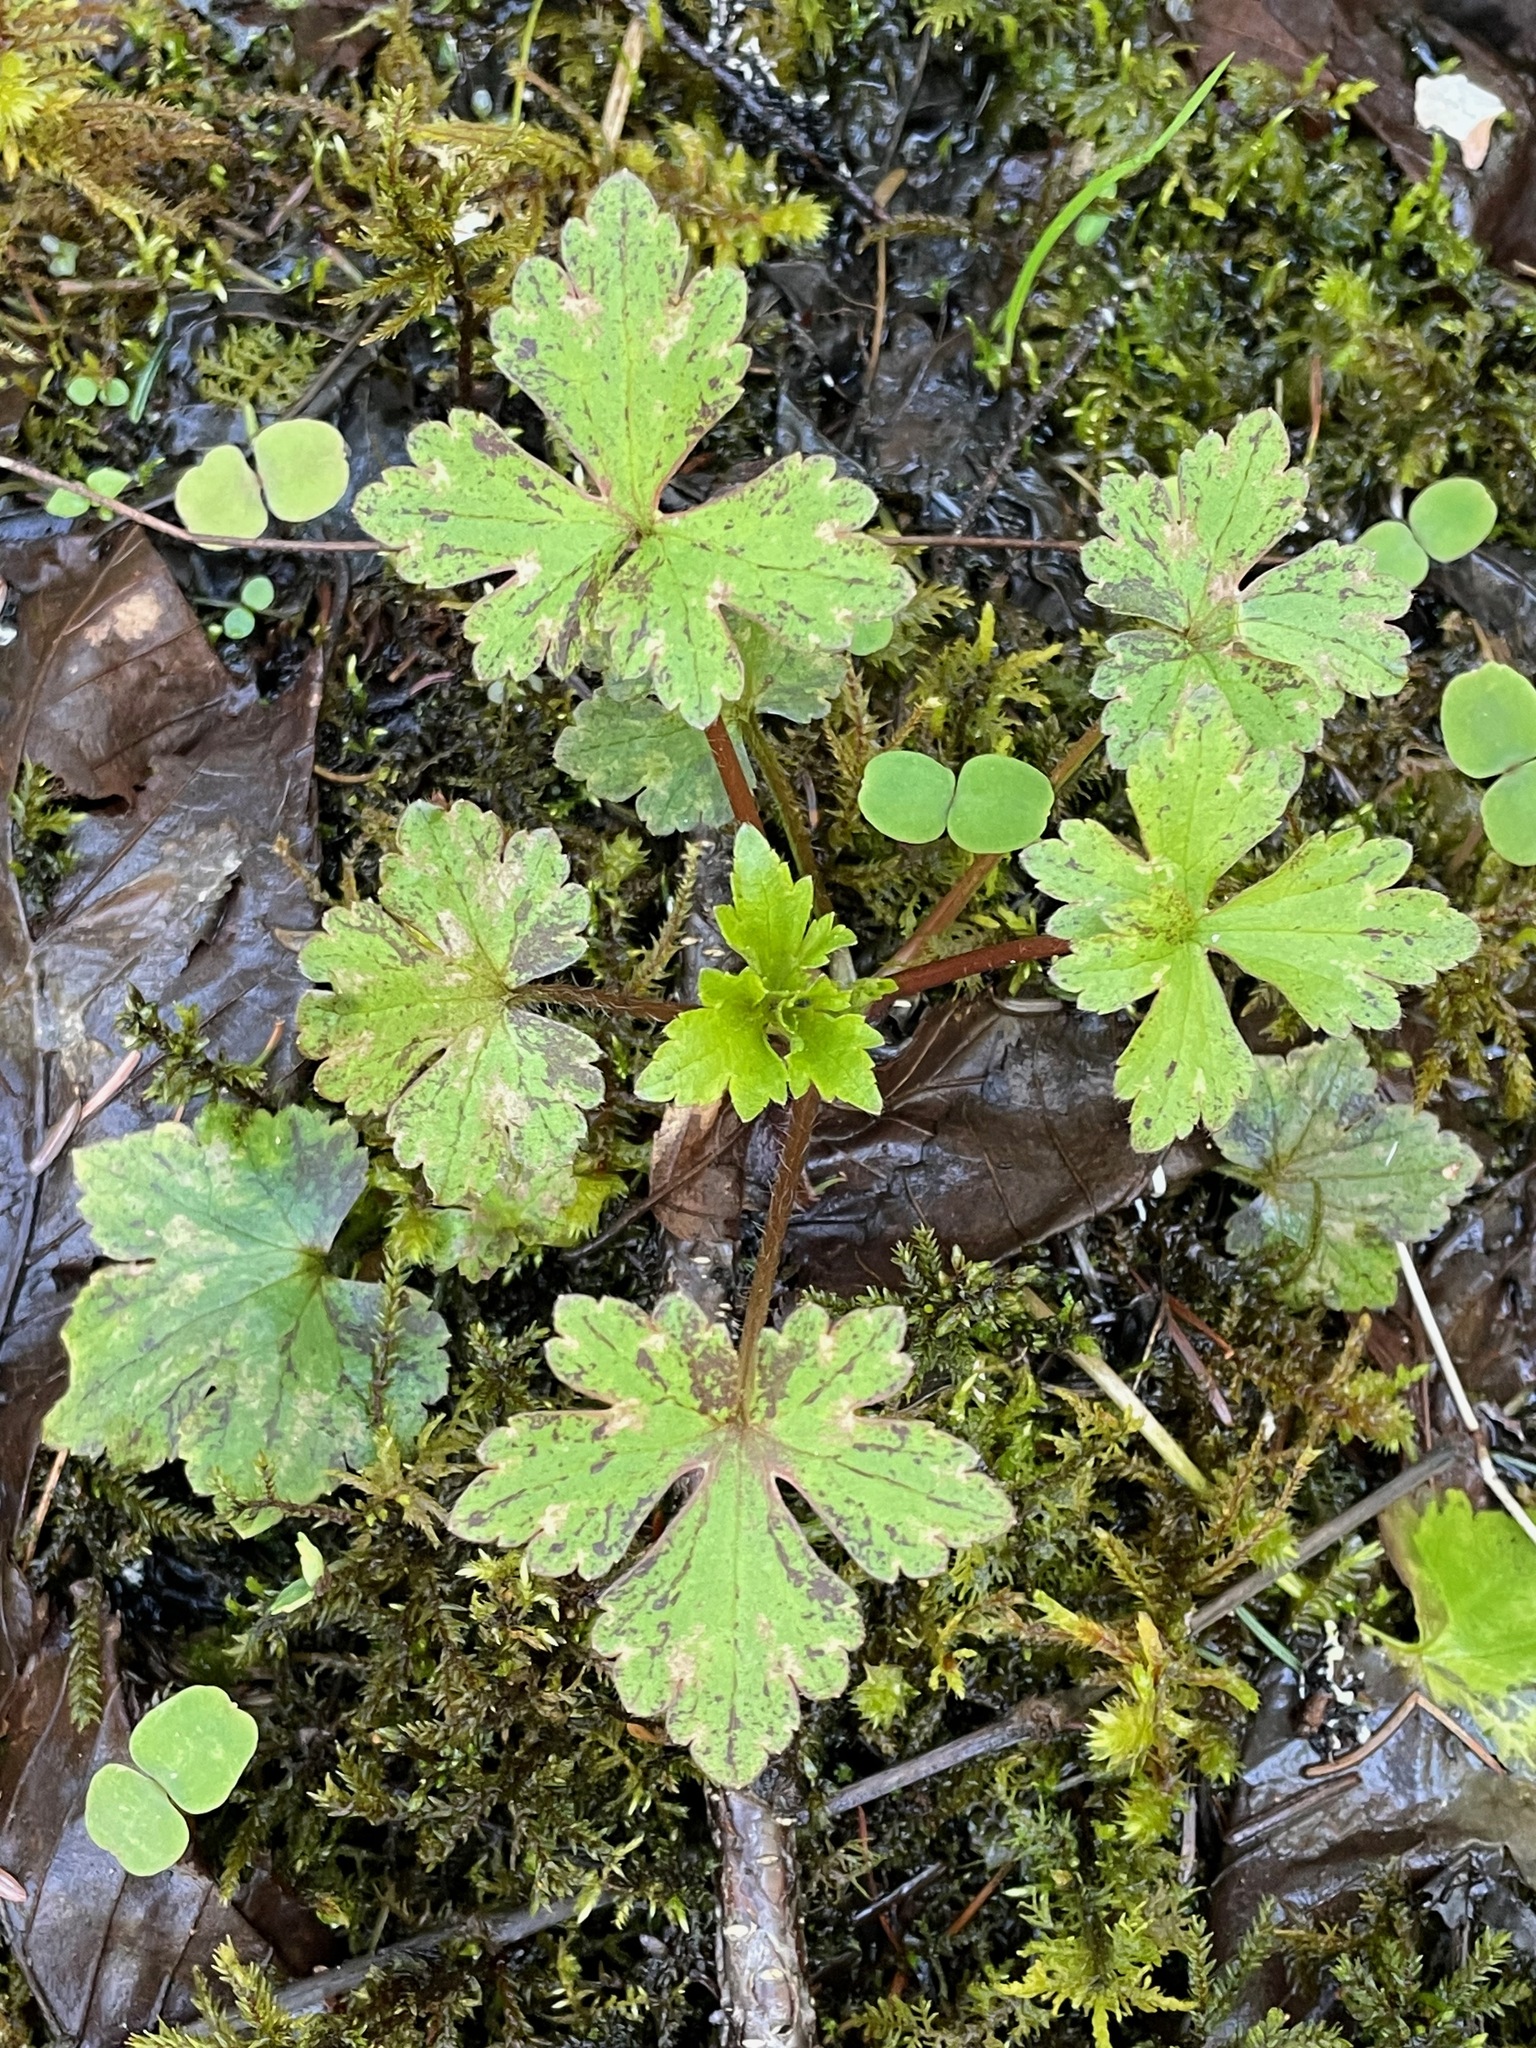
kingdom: Plantae
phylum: Tracheophyta
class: Magnoliopsida
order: Ranunculales
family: Ranunculaceae
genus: Ranunculus
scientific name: Ranunculus recurvatus
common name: Blisterwort
